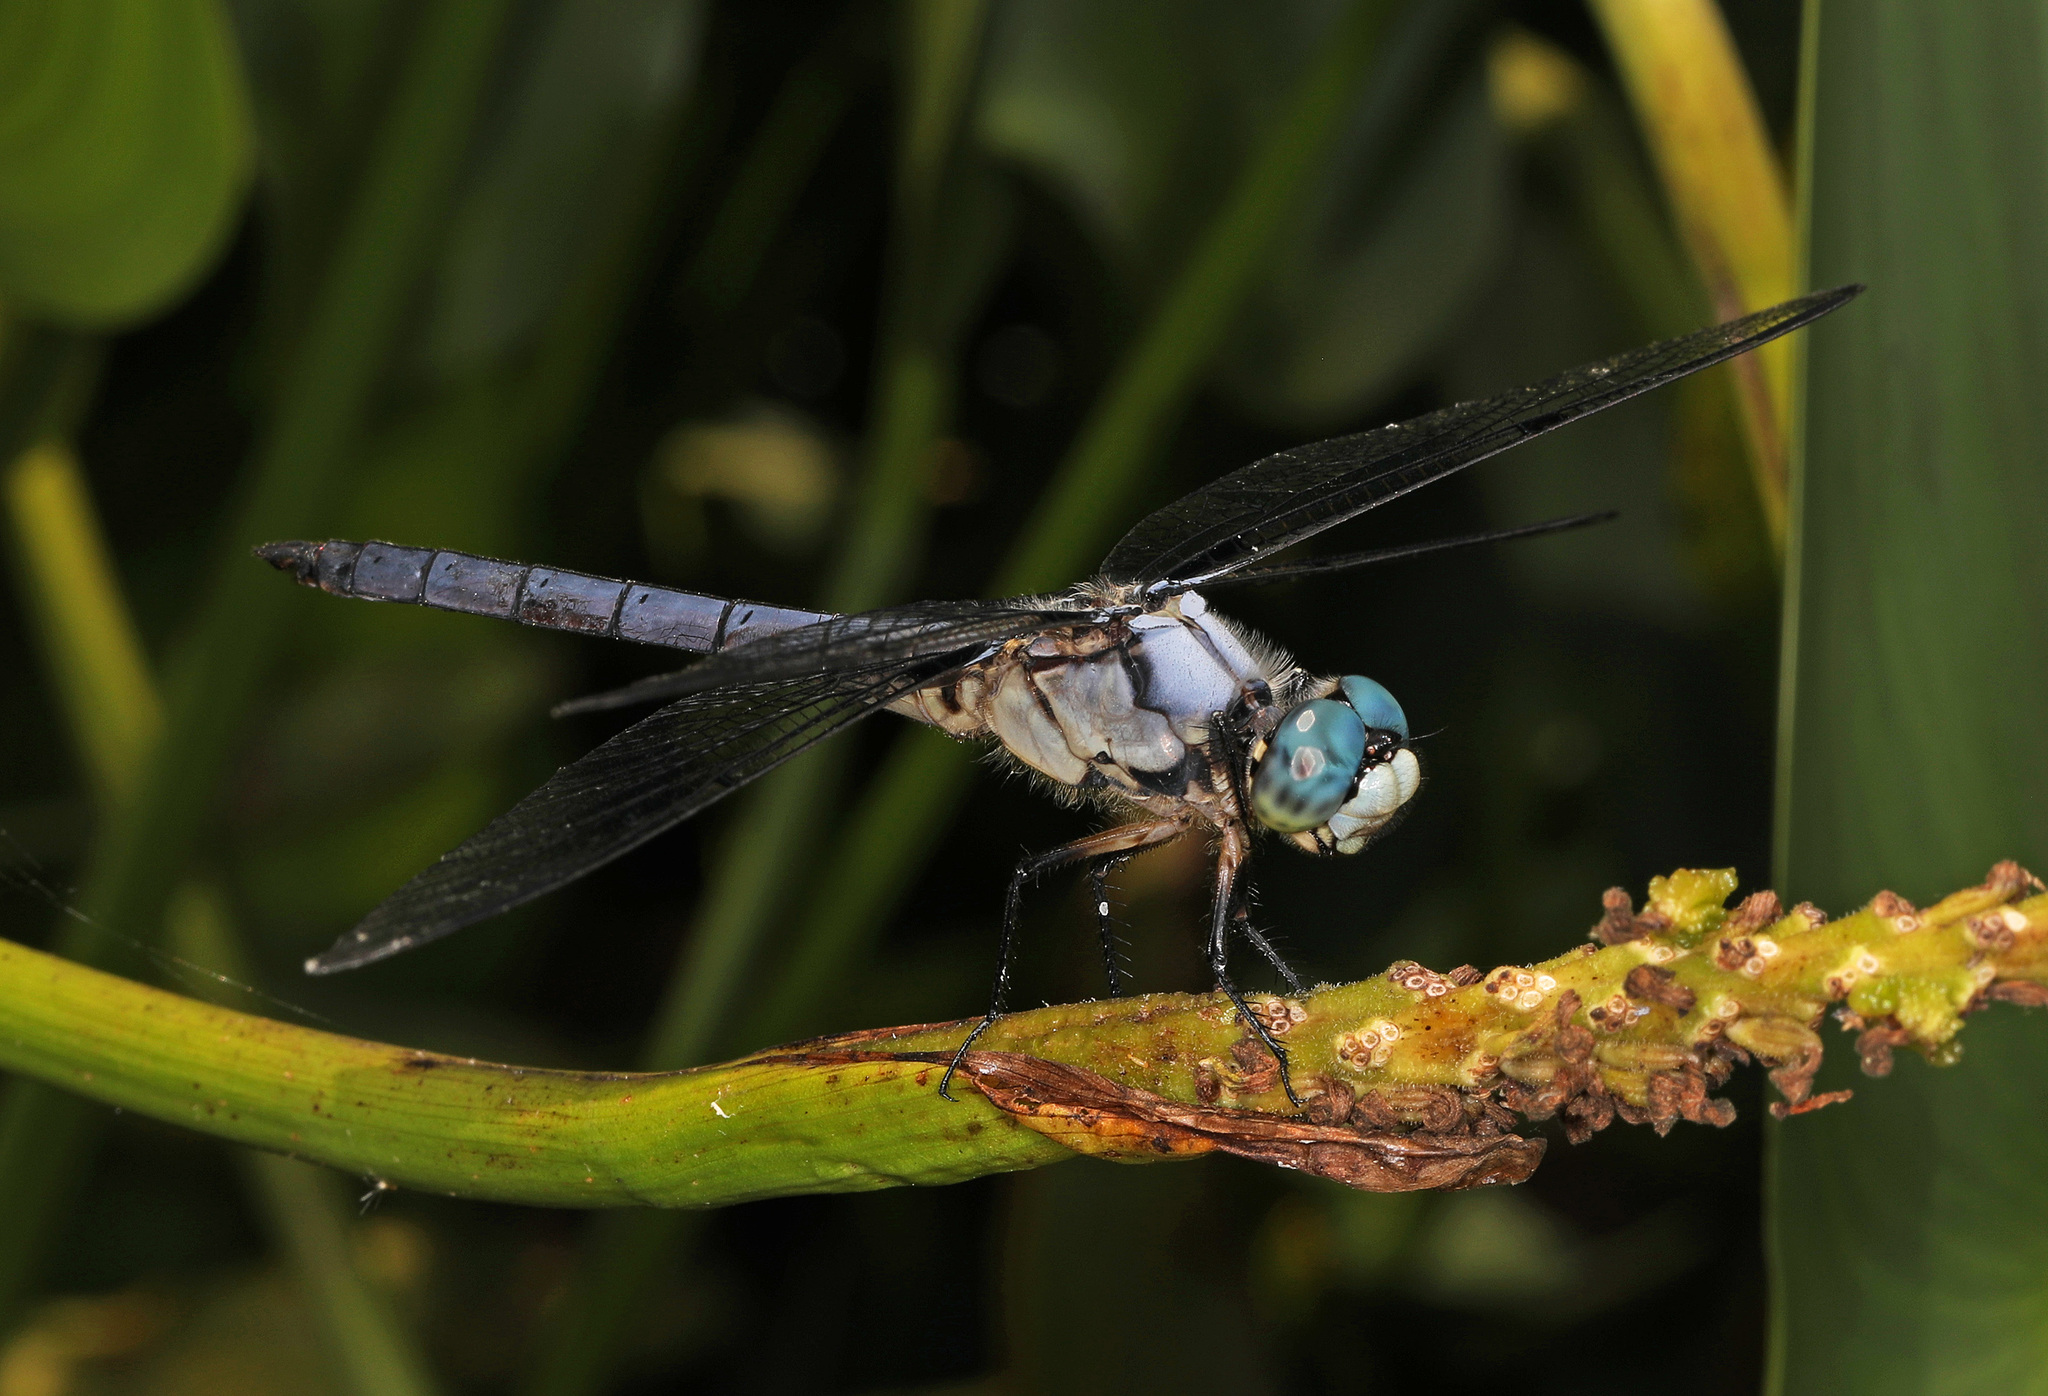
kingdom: Animalia
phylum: Arthropoda
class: Insecta
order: Odonata
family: Libellulidae
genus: Libellula
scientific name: Libellula vibrans
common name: Great blue skimmer
